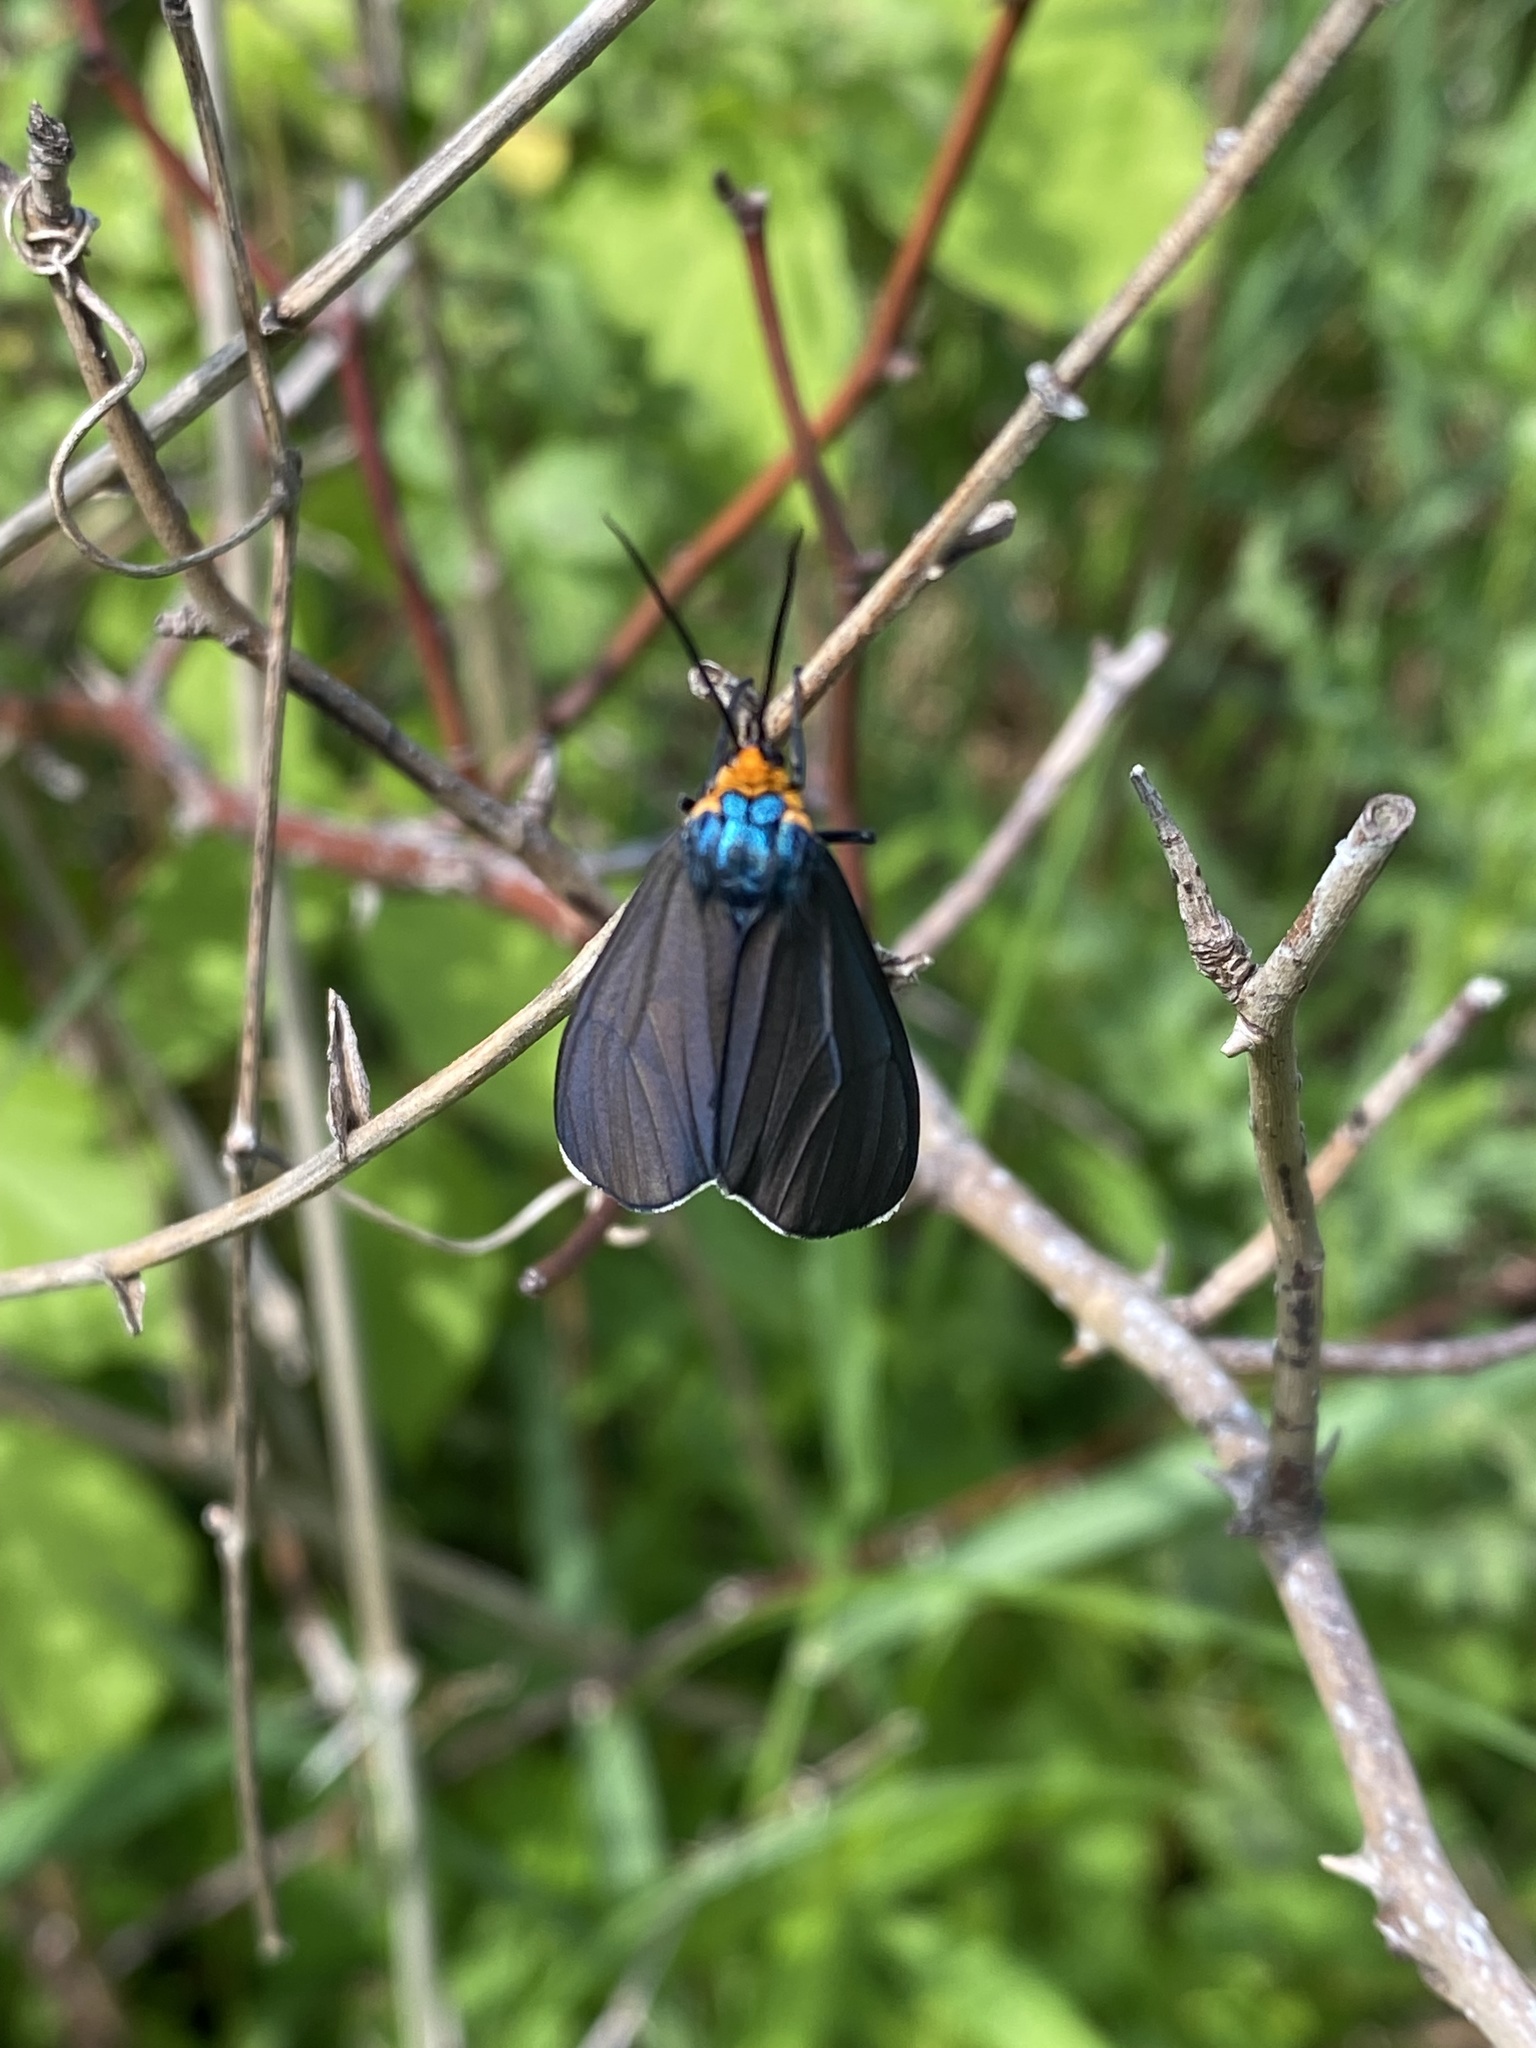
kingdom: Animalia
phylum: Arthropoda
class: Insecta
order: Lepidoptera
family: Erebidae
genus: Ctenucha
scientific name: Ctenucha virginica
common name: Virginia ctenucha moth
